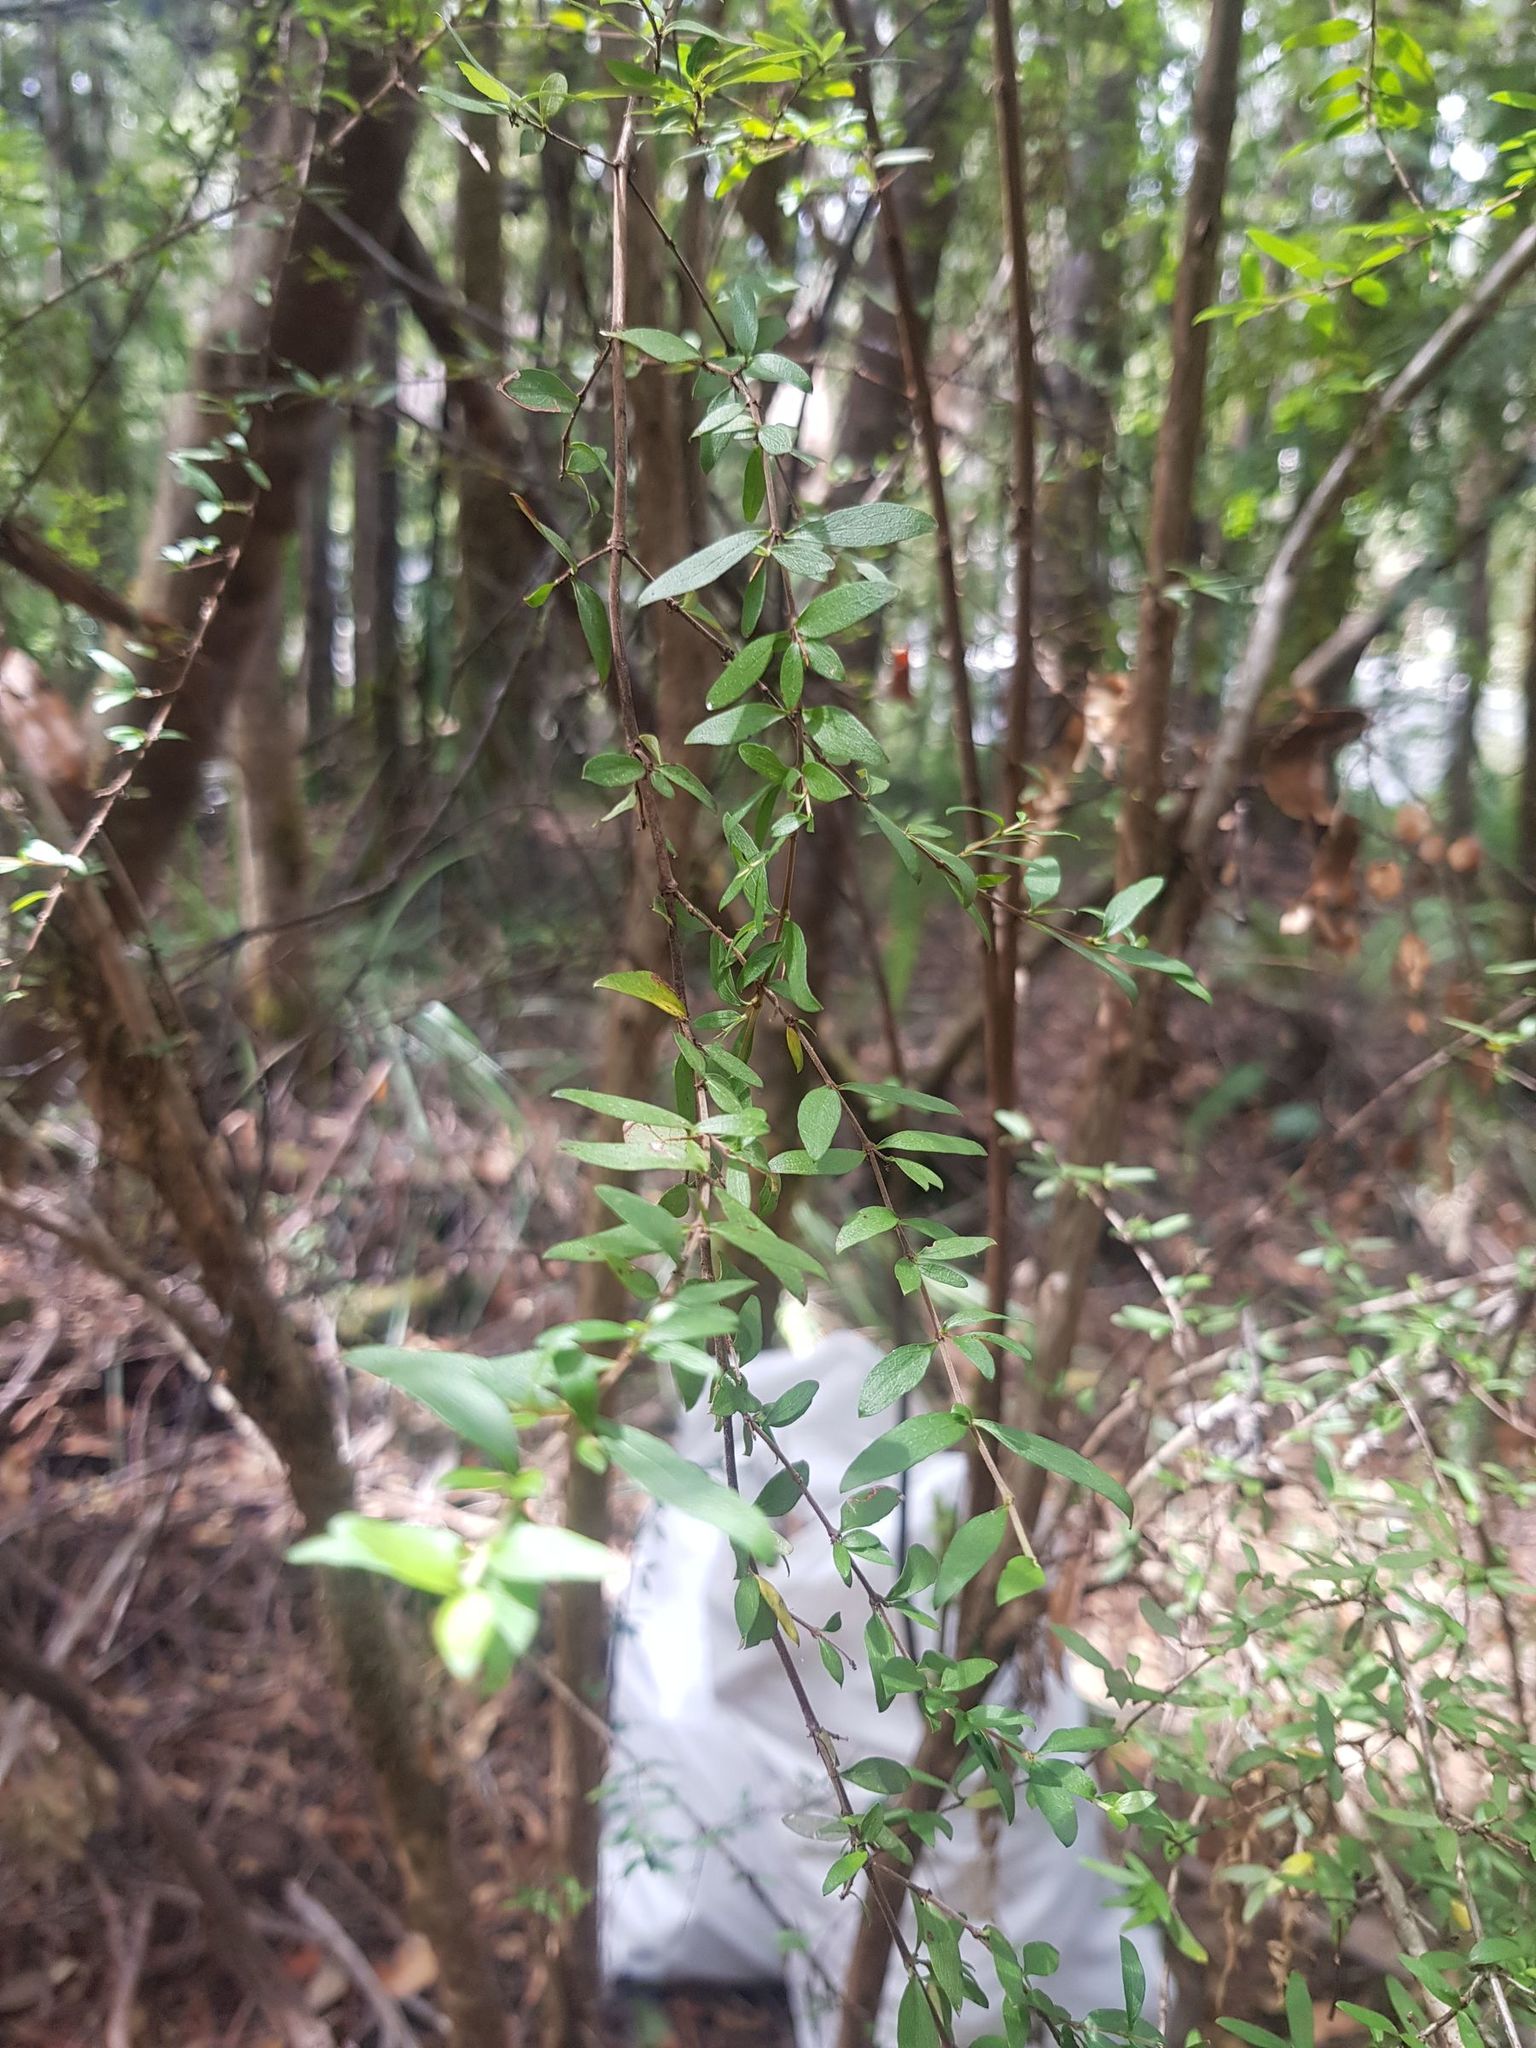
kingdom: Plantae
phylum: Tracheophyta
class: Magnoliopsida
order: Gentianales
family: Rubiaceae
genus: Coprosma
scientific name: Coprosma quadrifida
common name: Prickly currantbush
